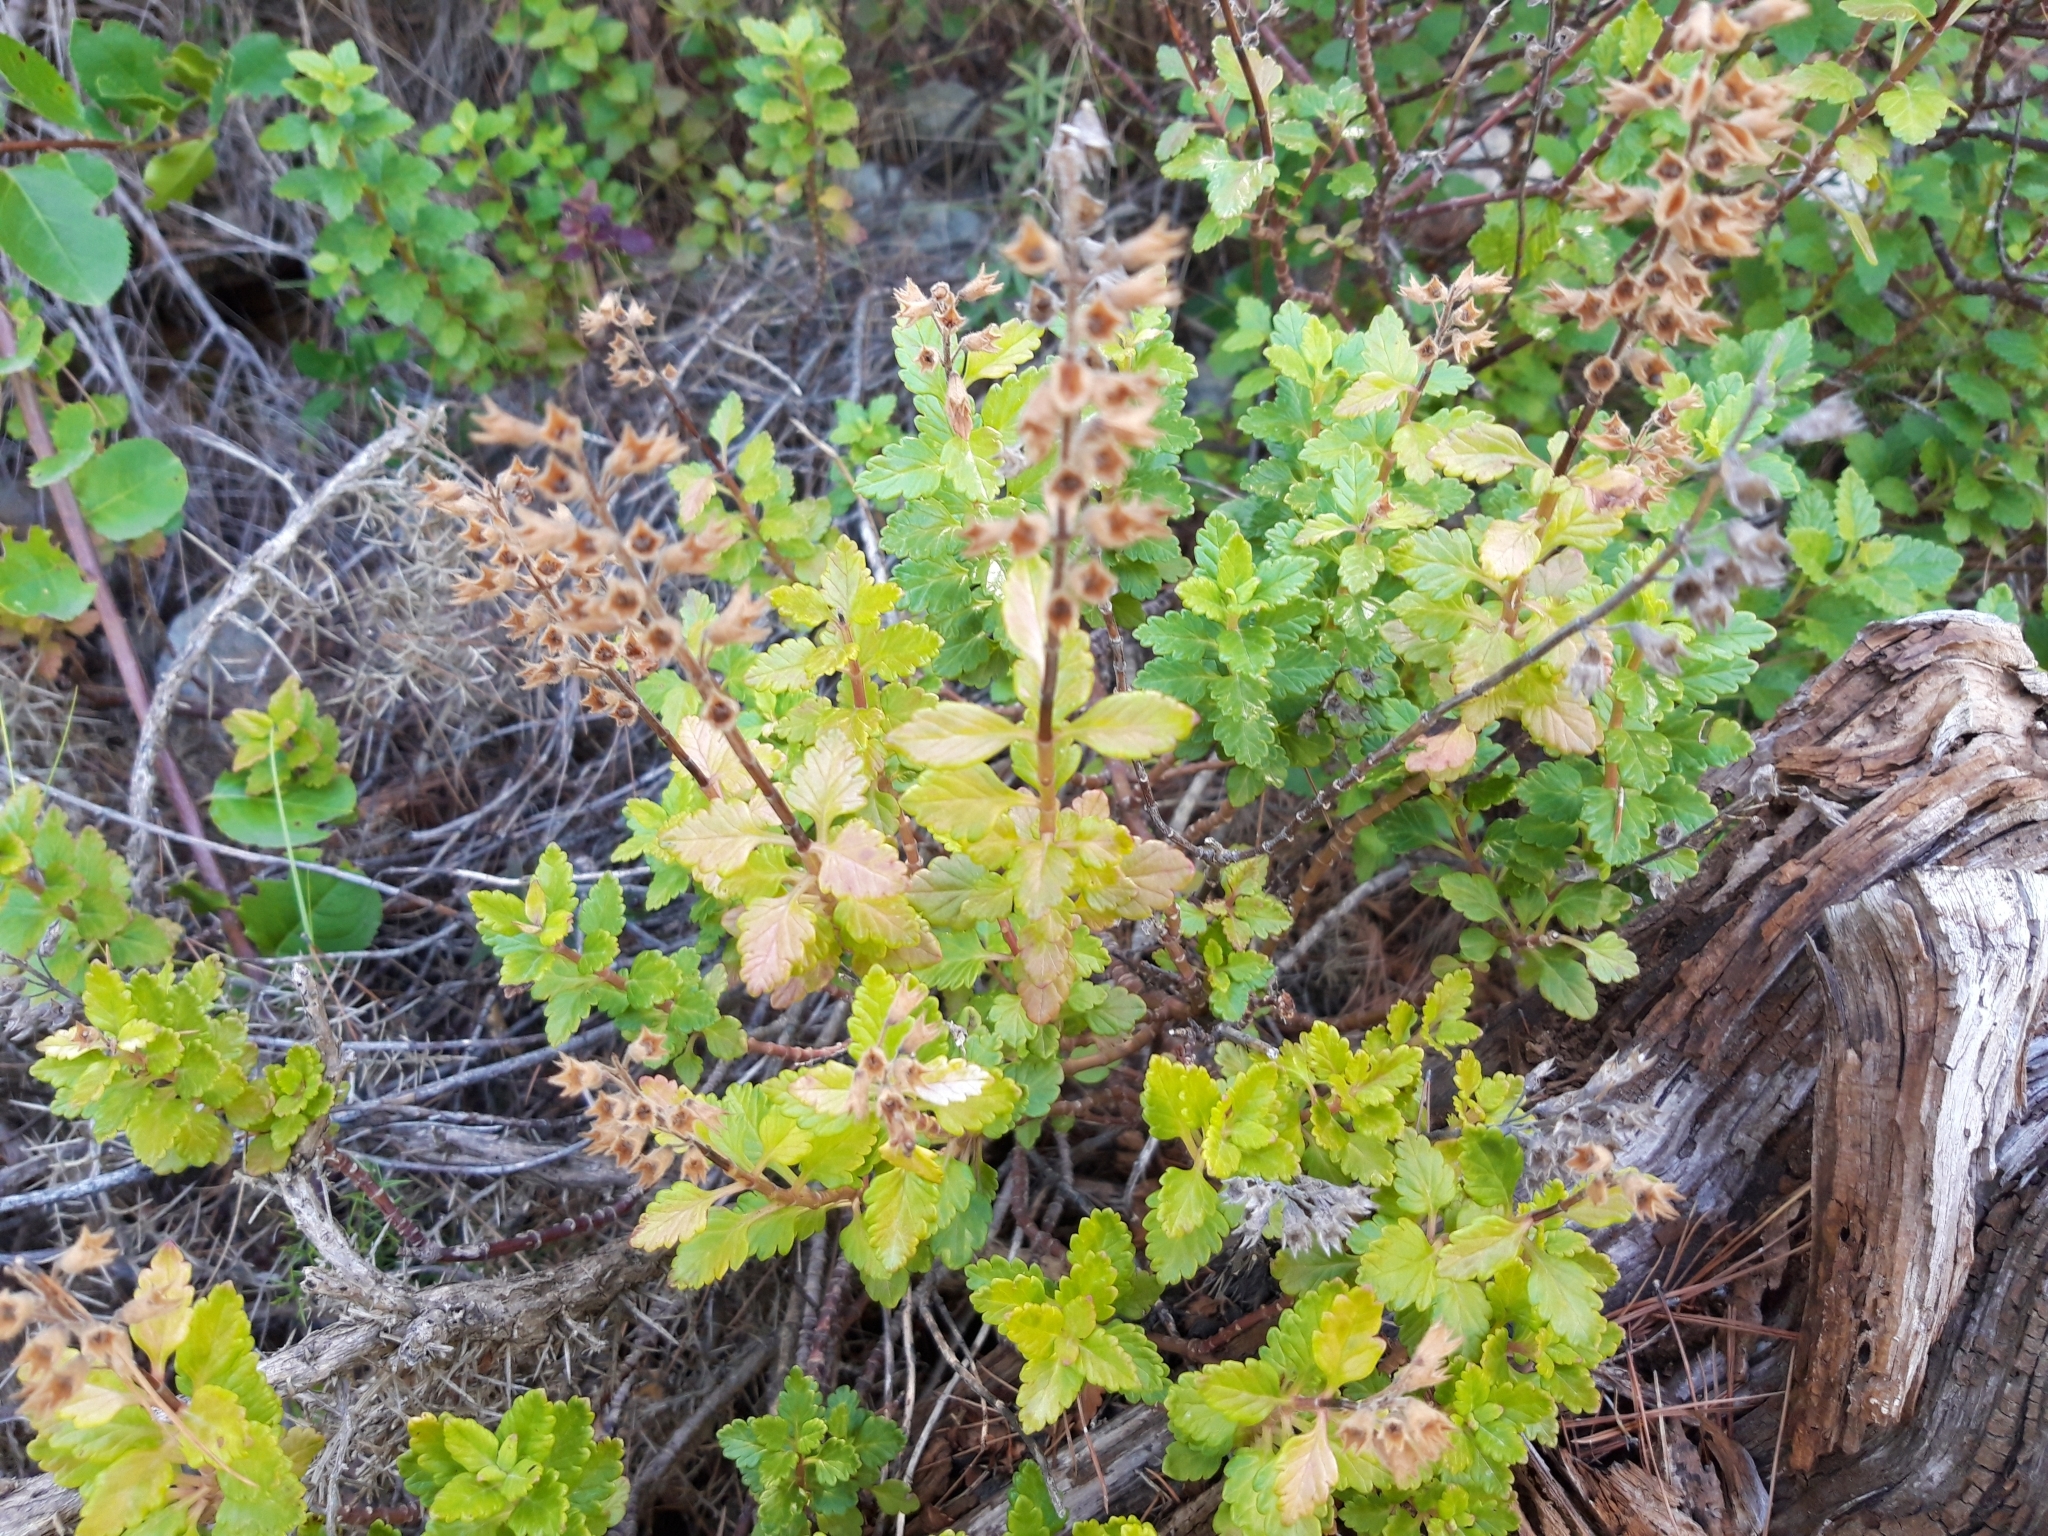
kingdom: Plantae
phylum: Tracheophyta
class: Magnoliopsida
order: Lamiales
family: Lamiaceae
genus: Teucrium
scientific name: Teucrium chamaedrys
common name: Wall germander
